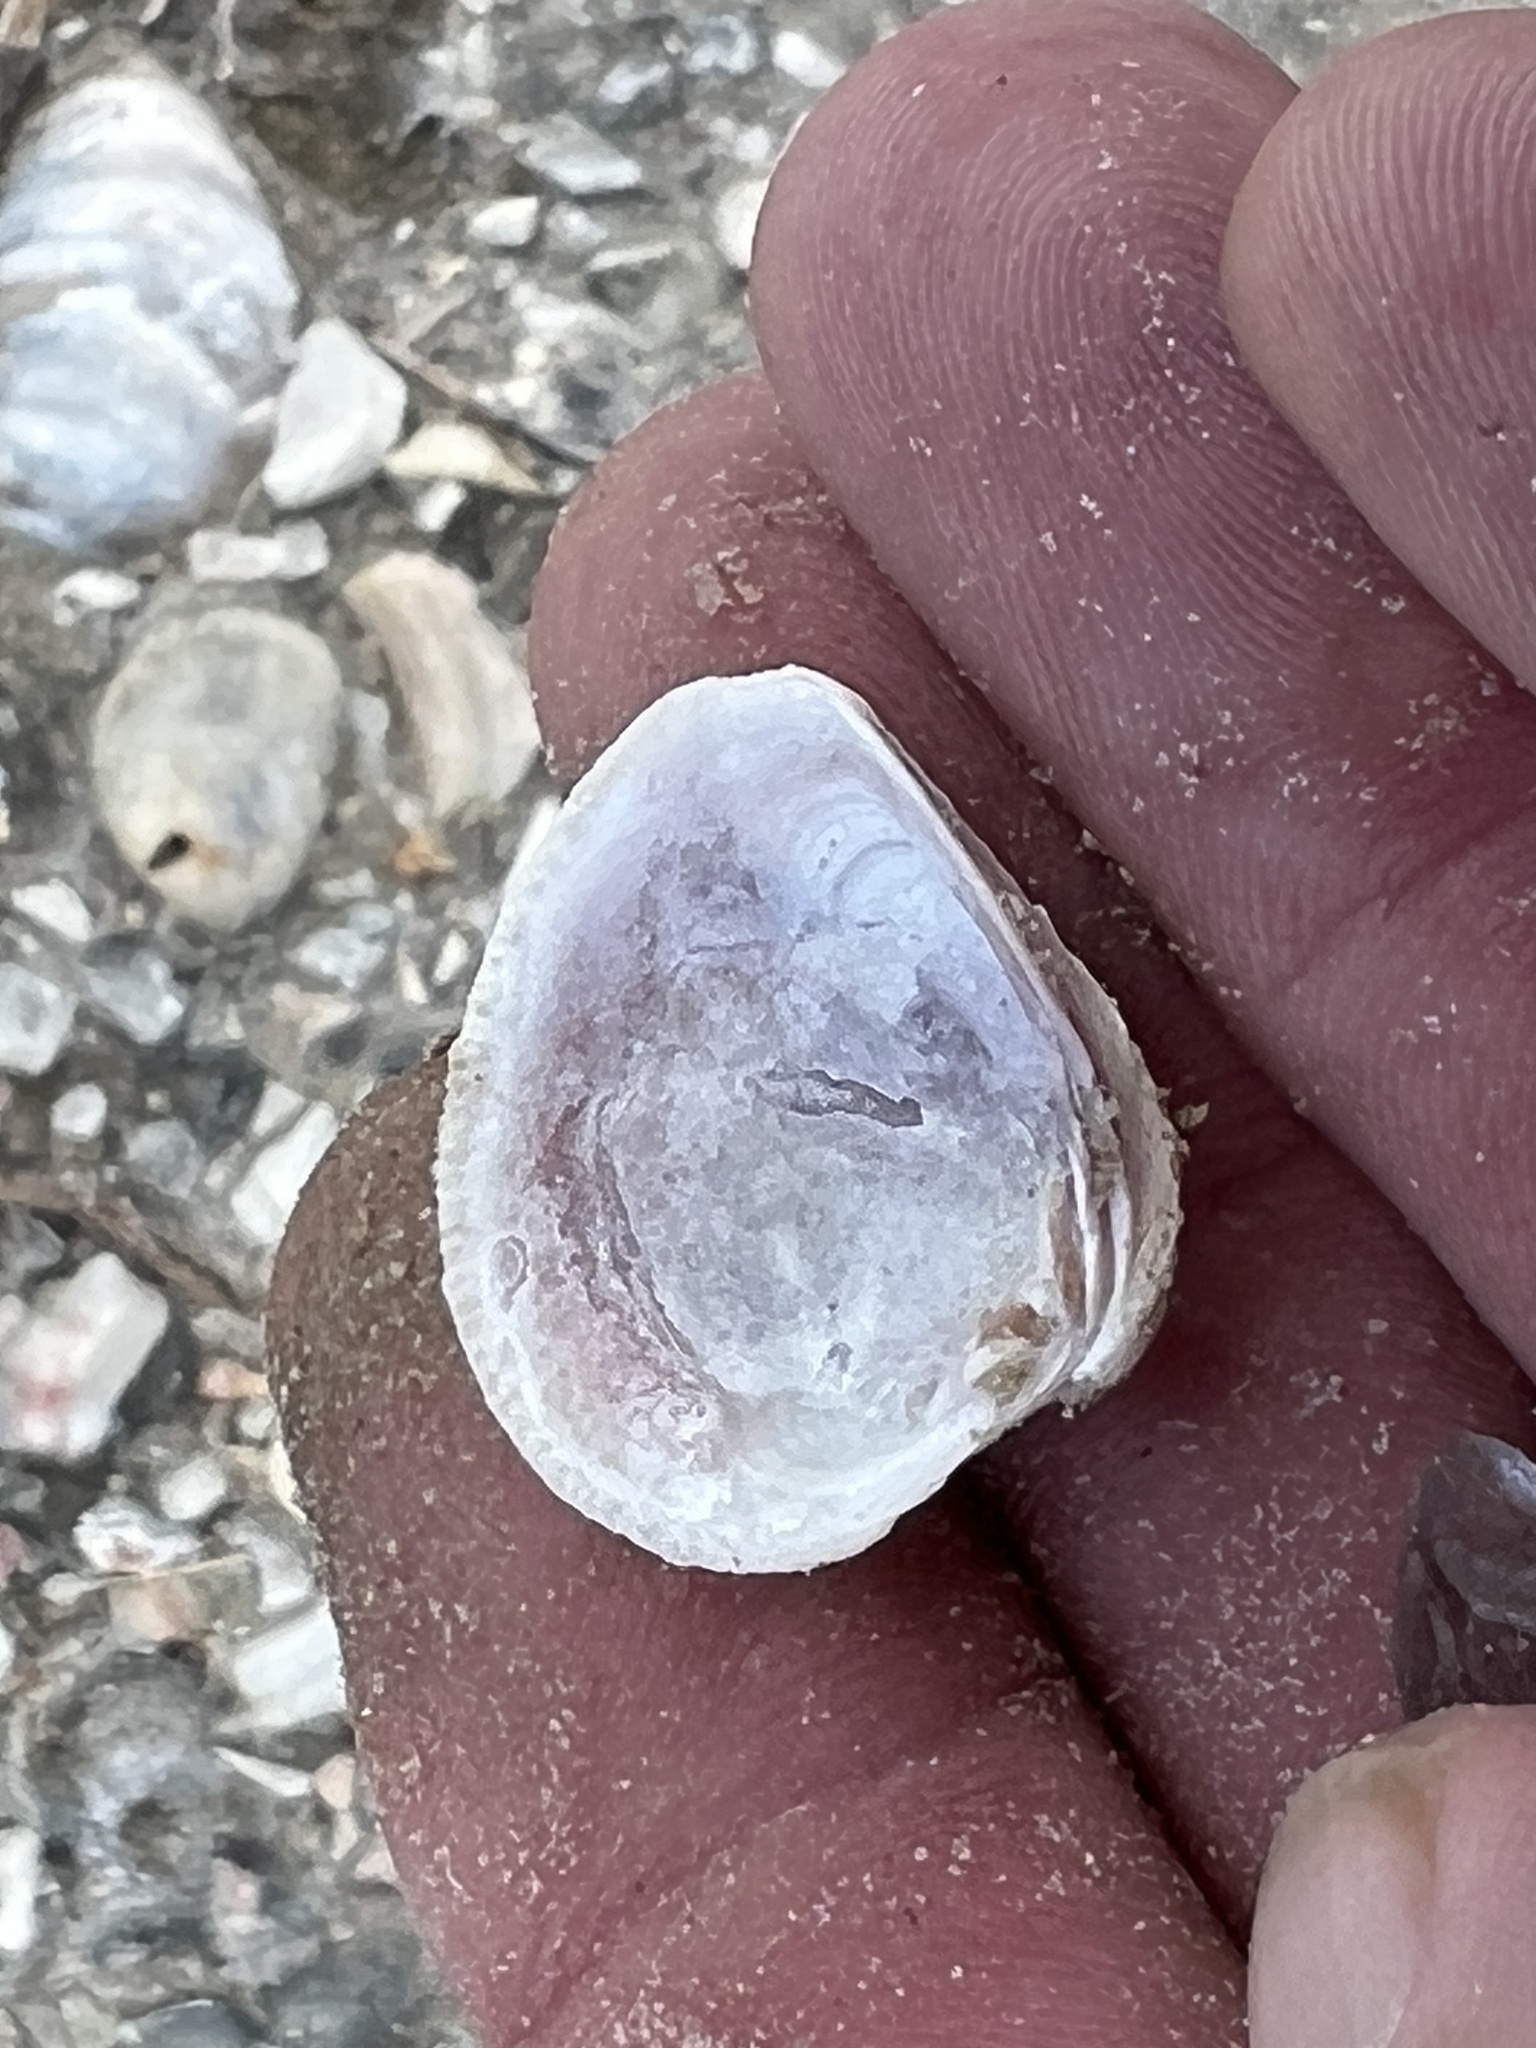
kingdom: Animalia
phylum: Mollusca
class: Bivalvia
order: Venerida
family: Veneridae
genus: Chione
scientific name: Chione elevata
